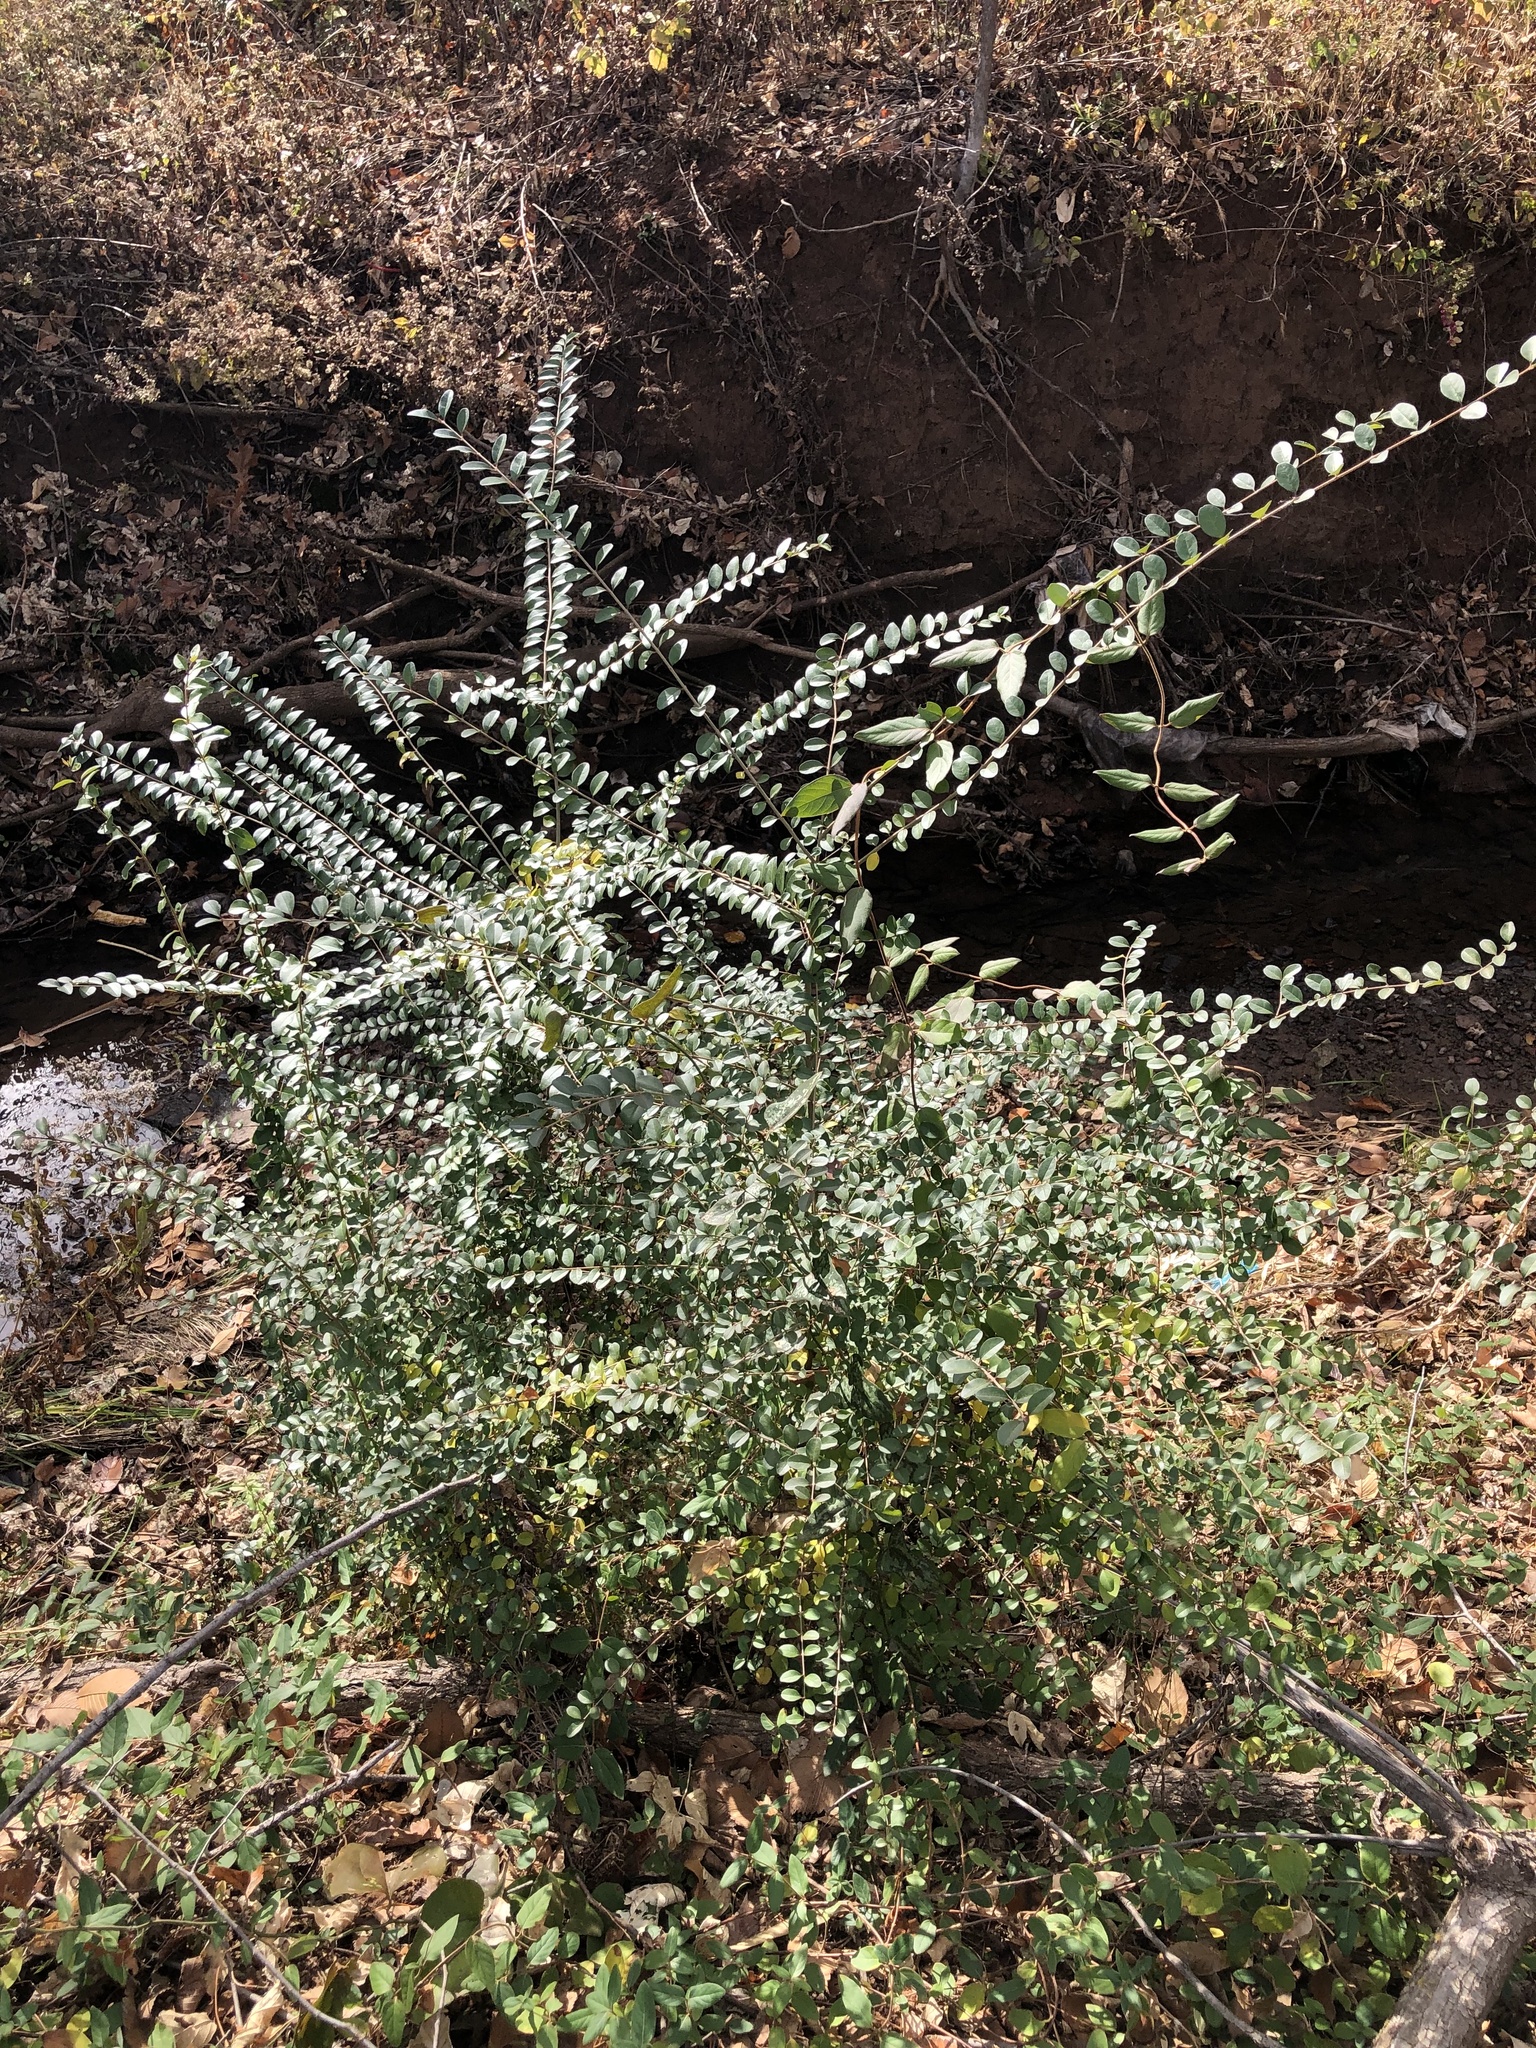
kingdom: Plantae
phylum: Tracheophyta
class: Magnoliopsida
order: Lamiales
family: Oleaceae
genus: Ligustrum
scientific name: Ligustrum sinense
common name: Chinese privet
